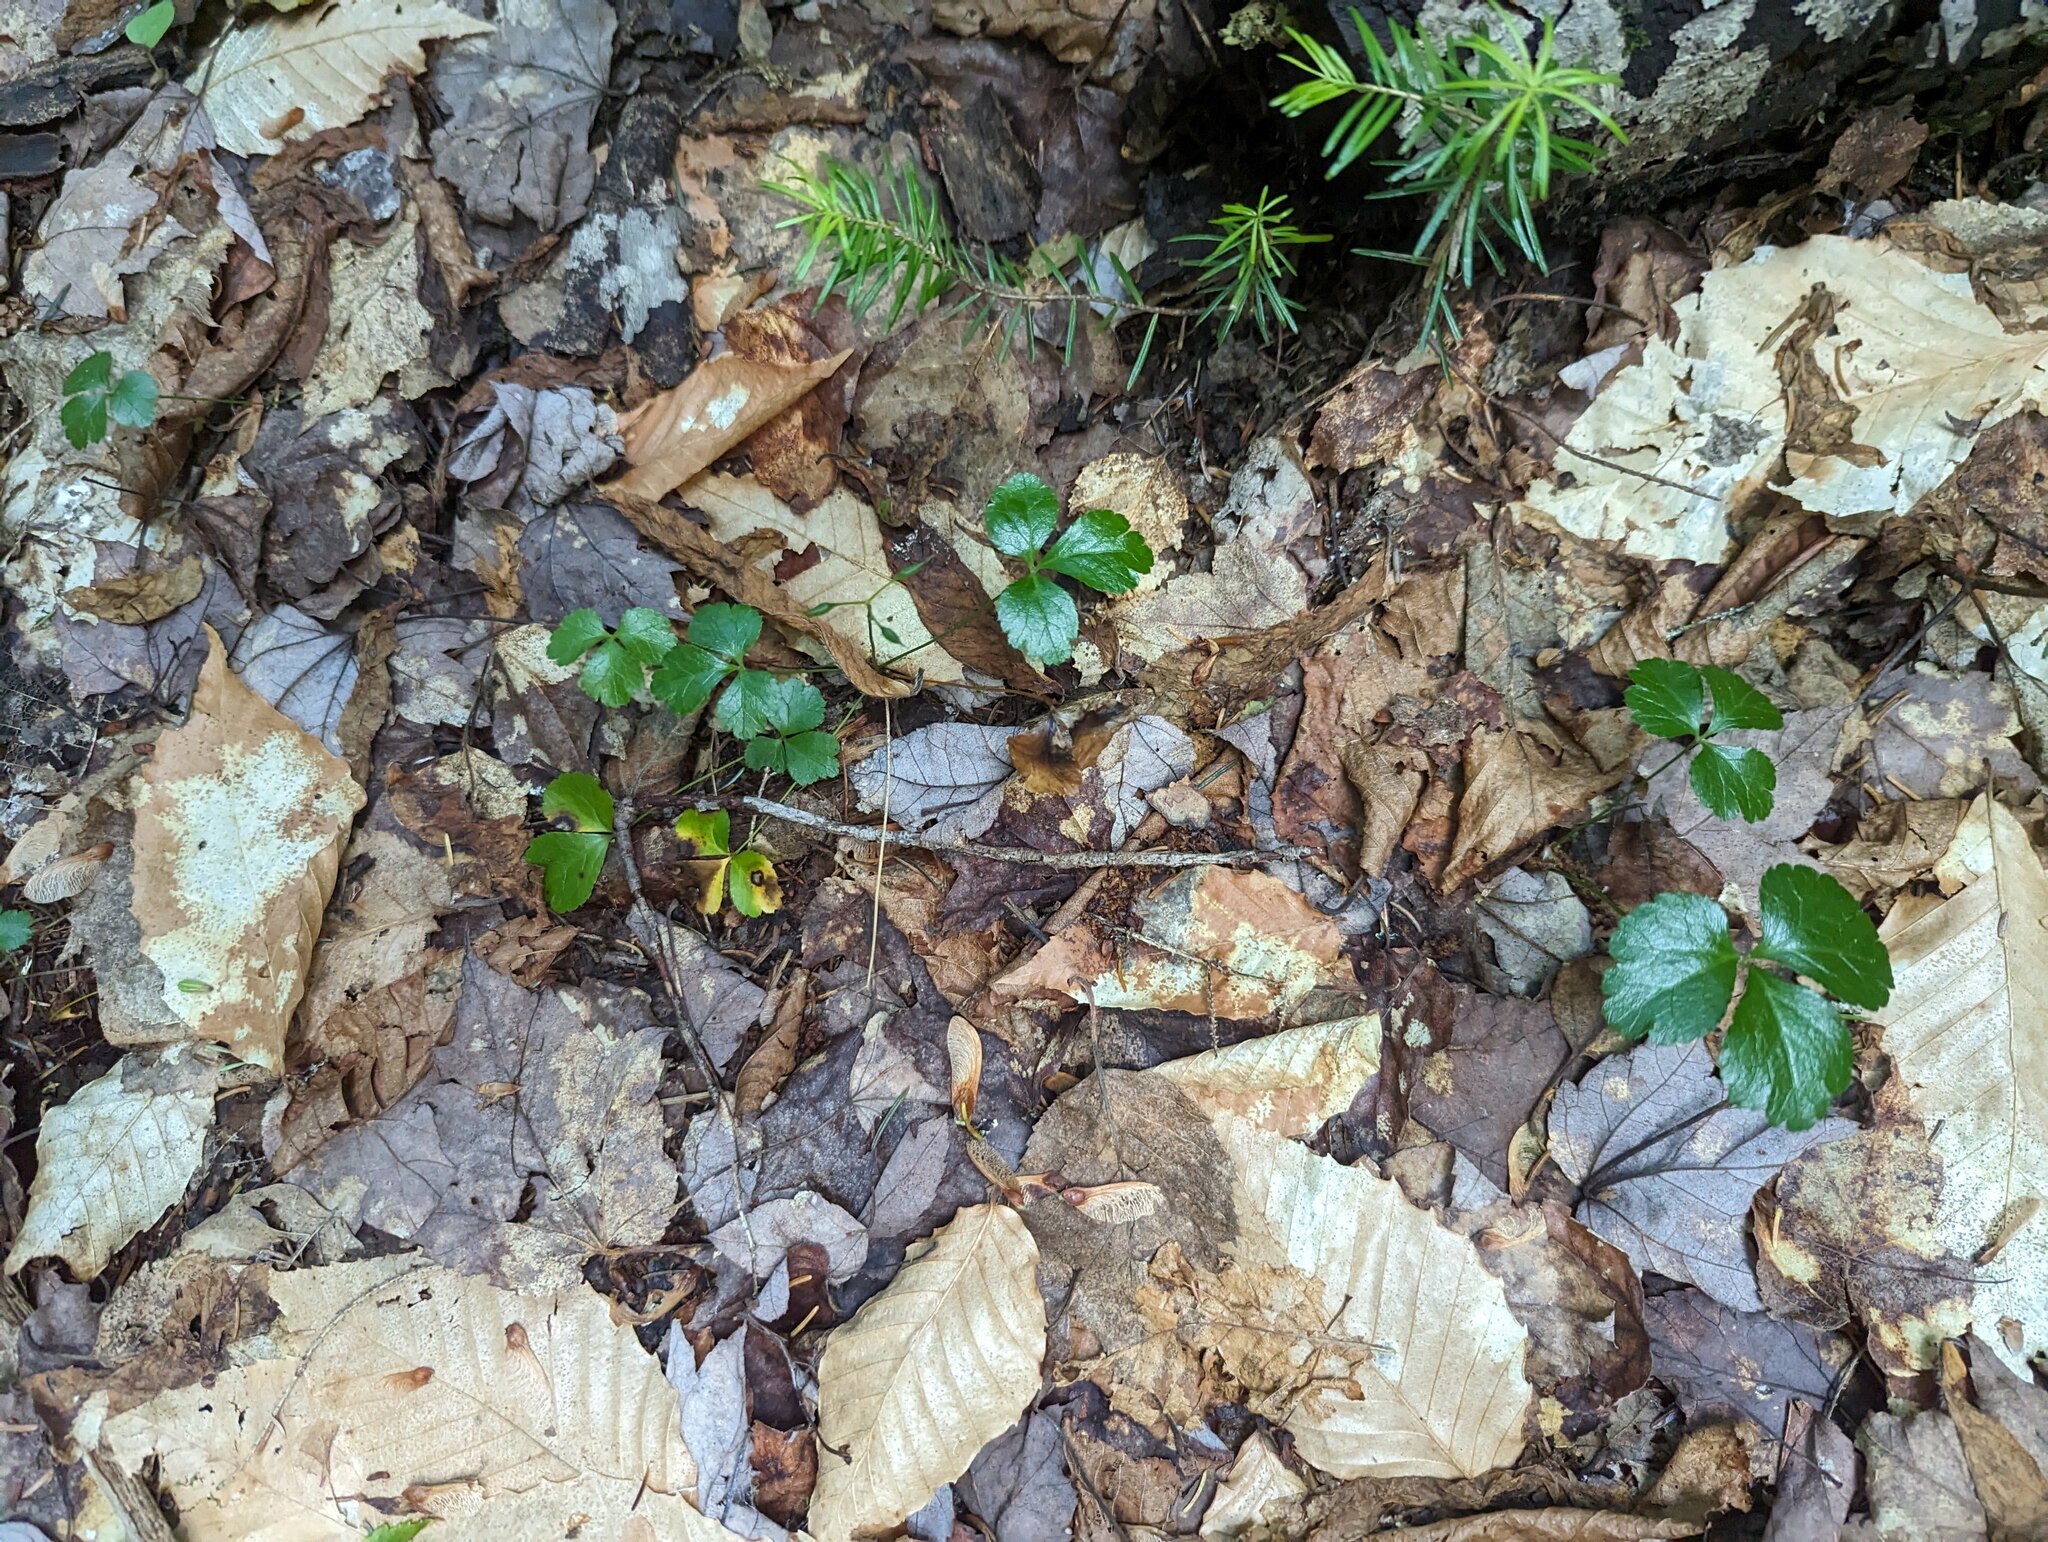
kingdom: Plantae
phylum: Tracheophyta
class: Magnoliopsida
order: Ranunculales
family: Ranunculaceae
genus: Coptis
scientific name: Coptis trifolia
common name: Canker-root
